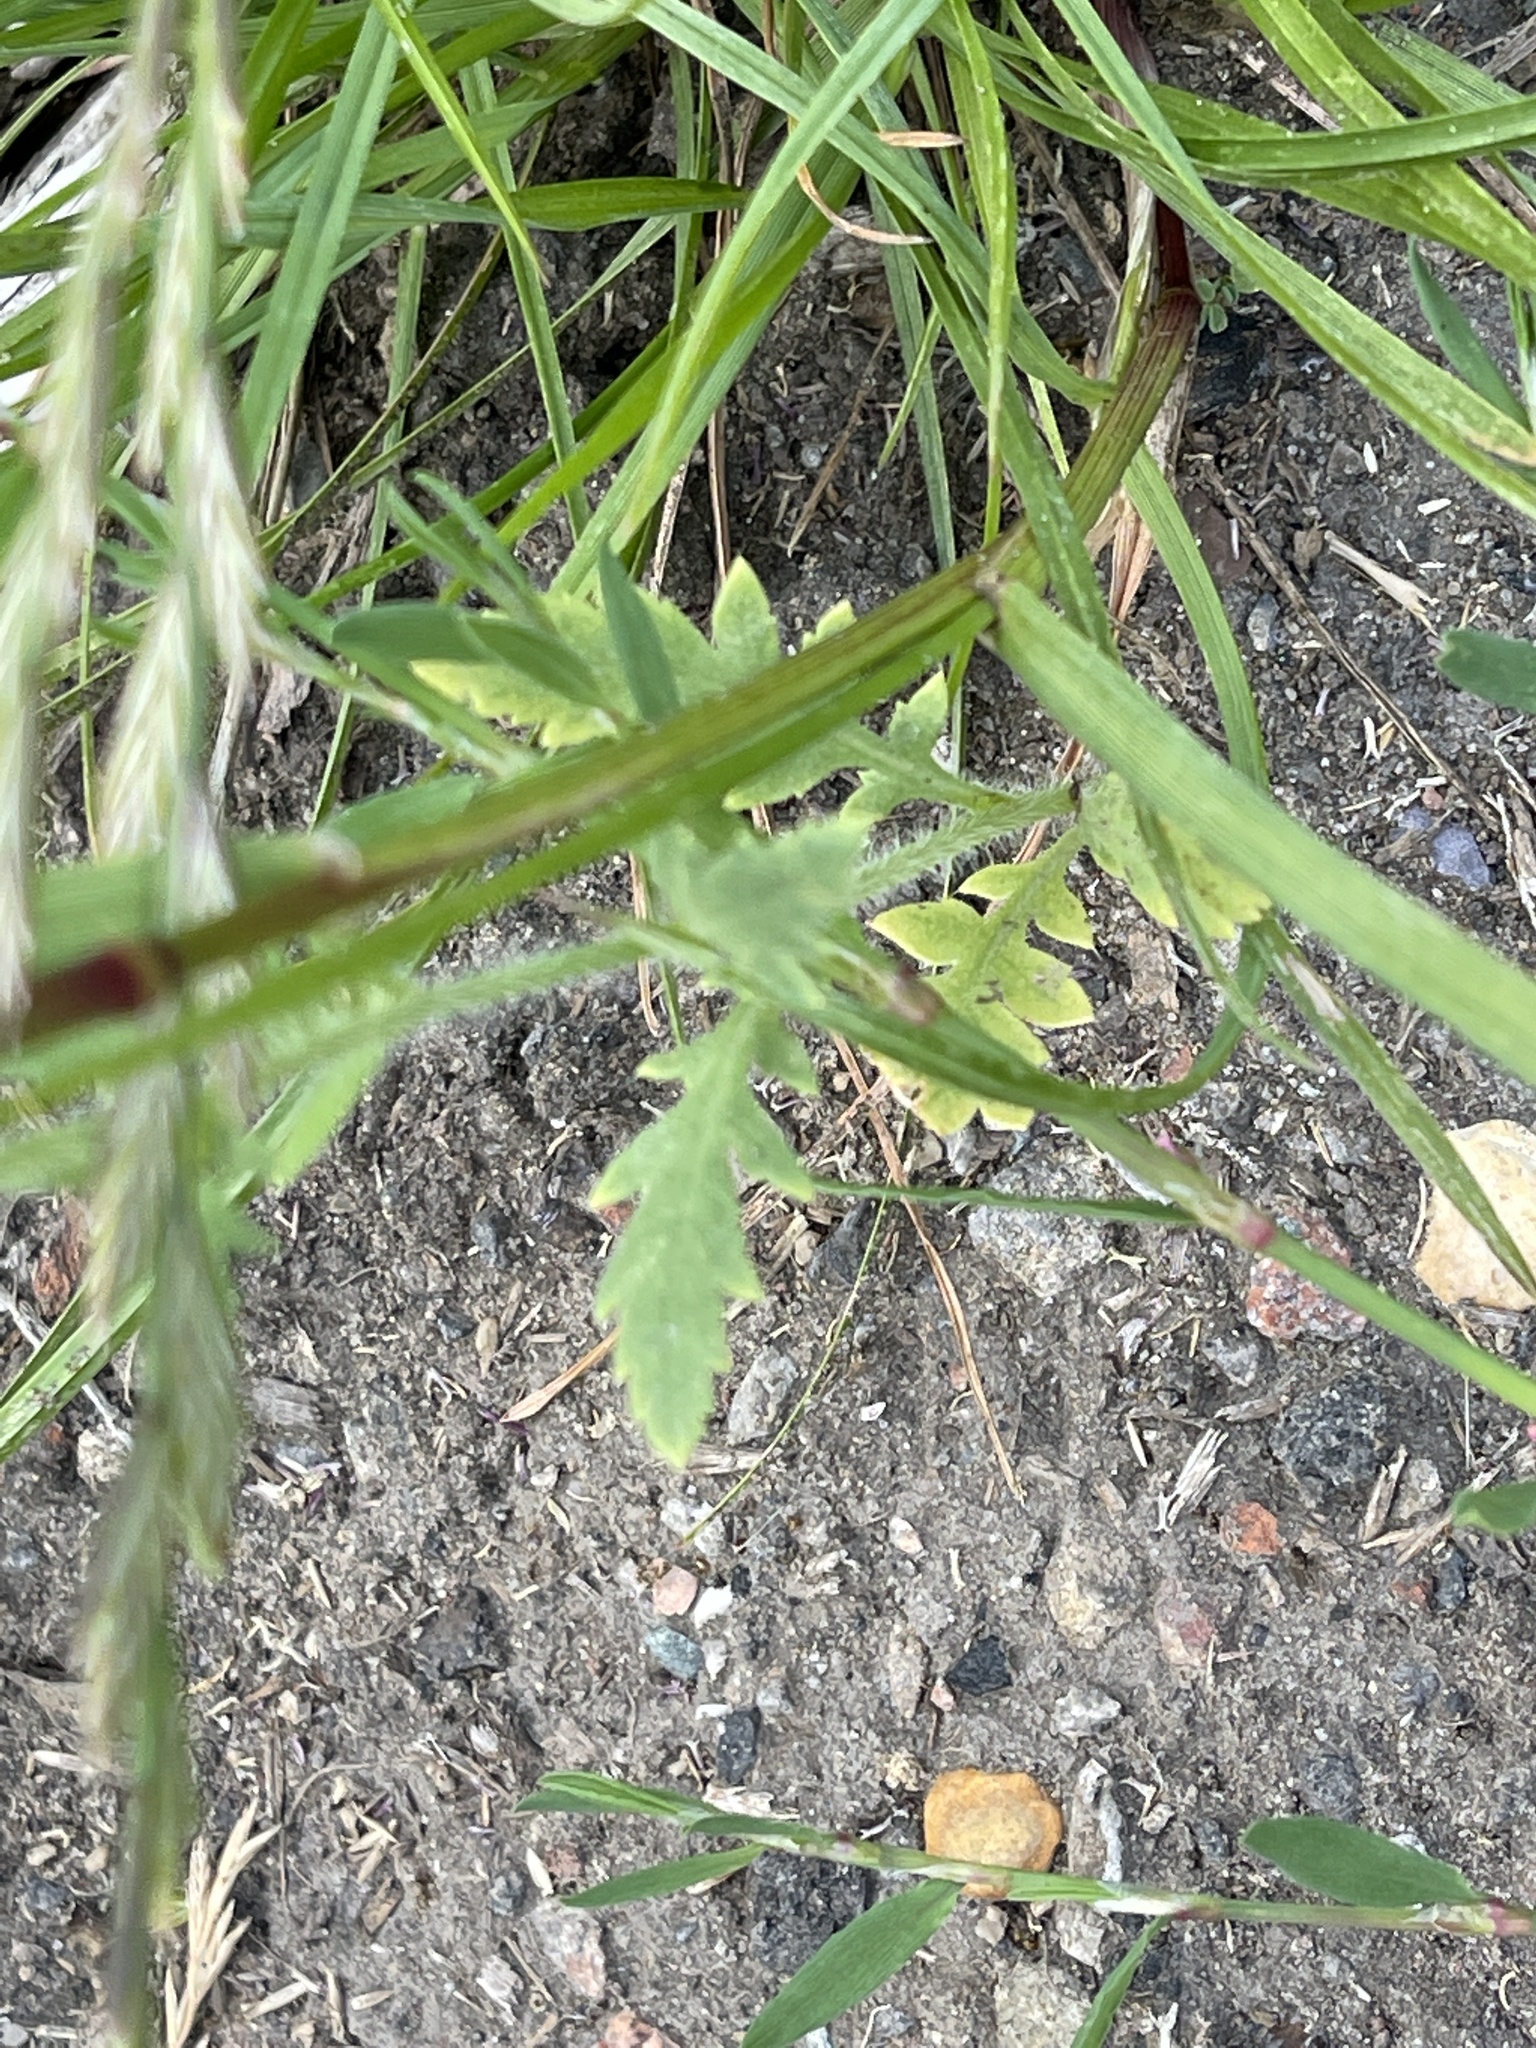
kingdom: Plantae
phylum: Tracheophyta
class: Magnoliopsida
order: Ranunculales
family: Papaveraceae
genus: Papaver
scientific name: Papaver rhoeas
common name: Corn poppy
